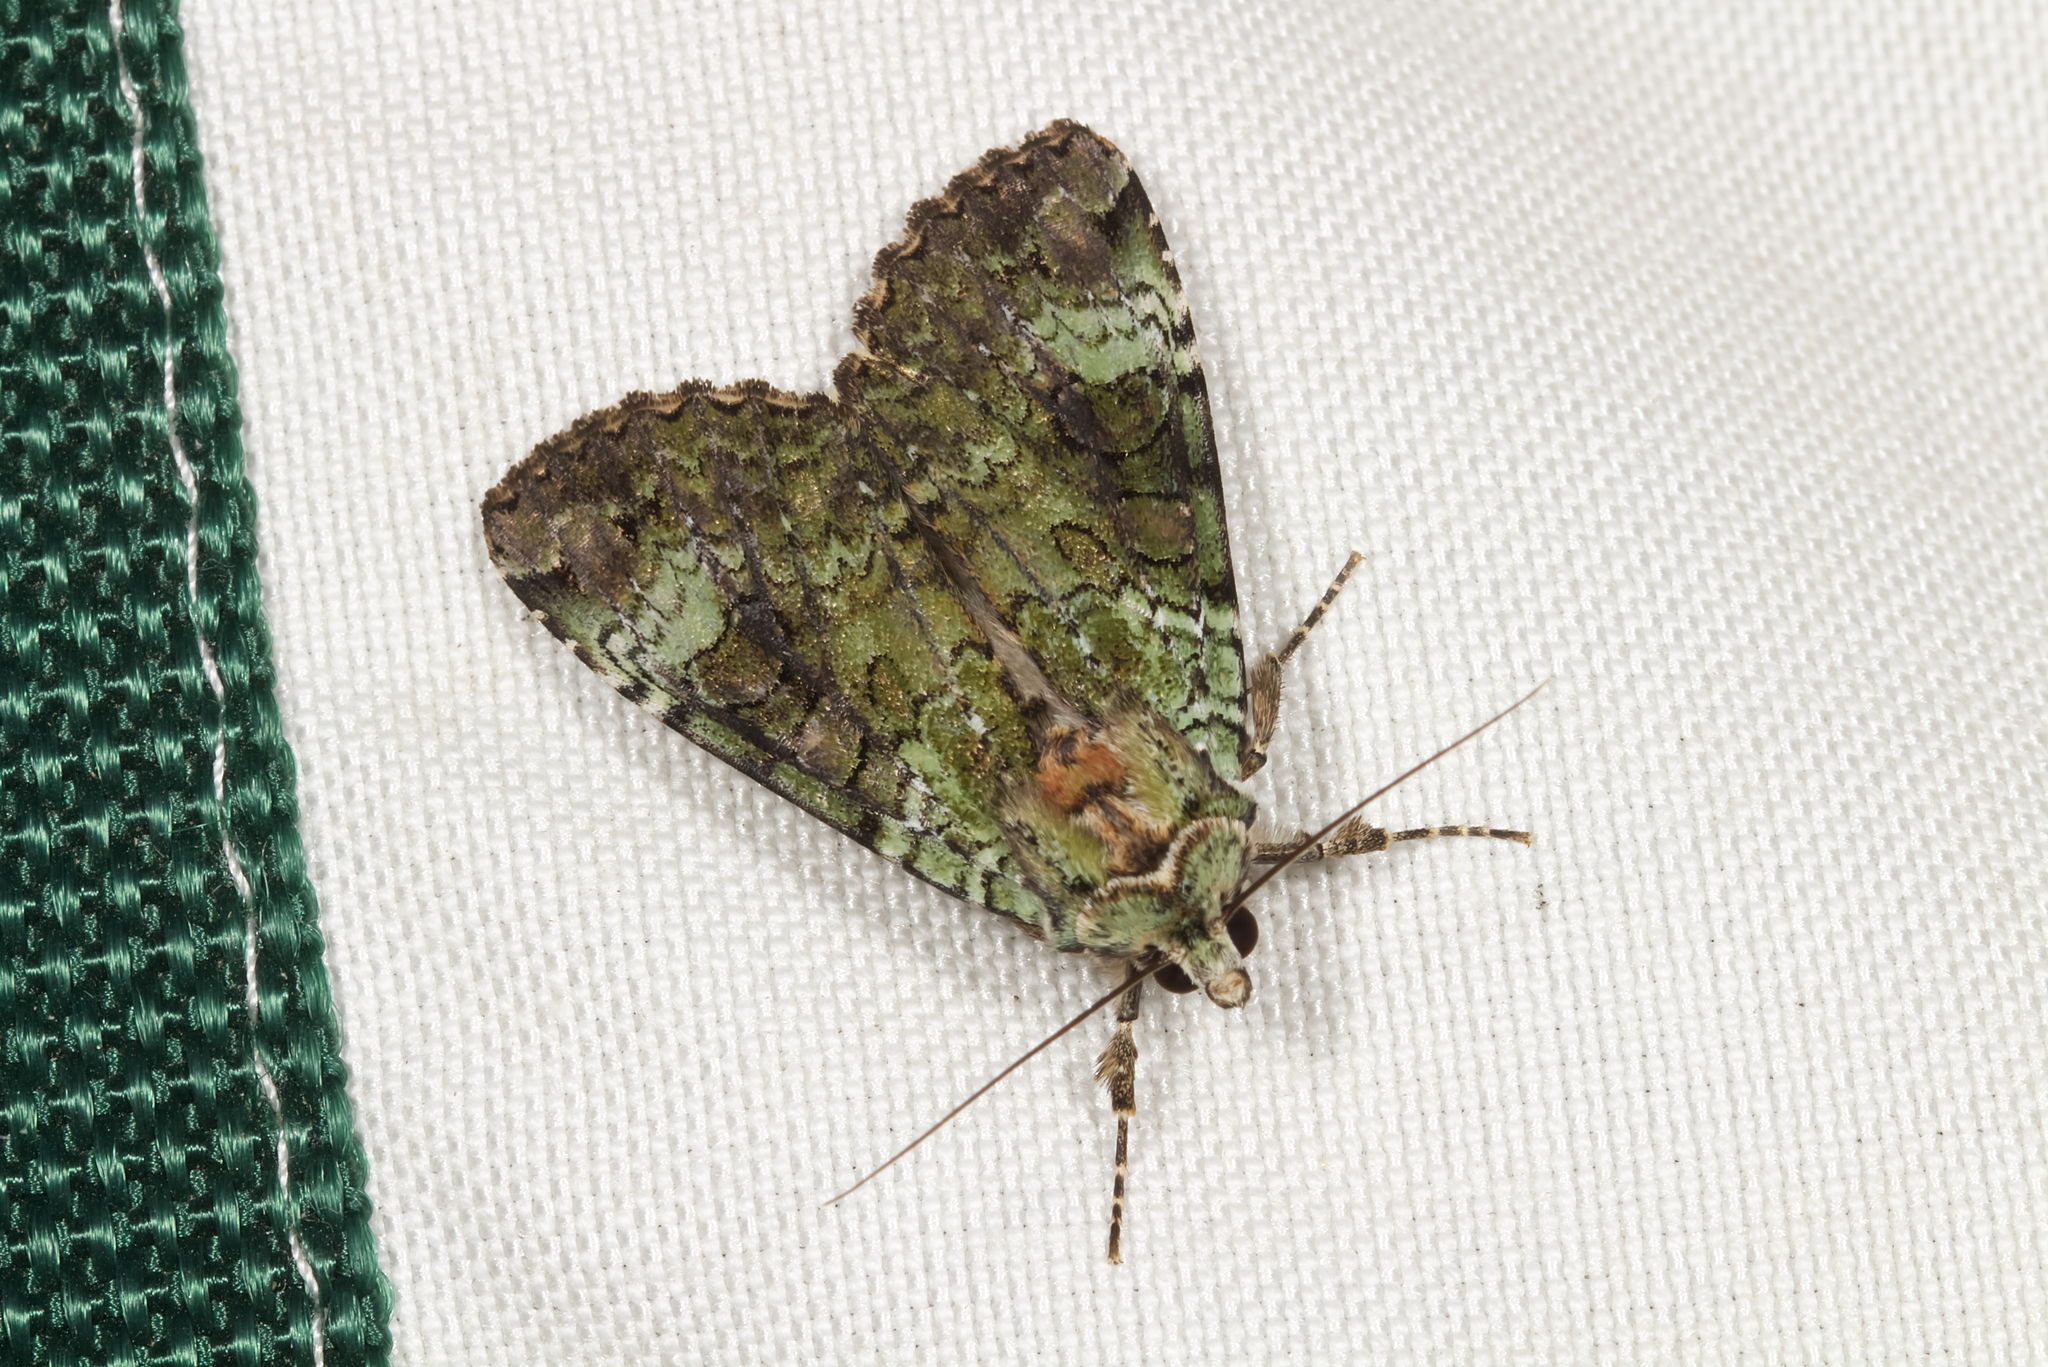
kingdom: Animalia
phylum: Arthropoda
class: Insecta
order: Lepidoptera
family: Noctuidae
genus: Anaplectoides
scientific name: Anaplectoides prasina
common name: Green arches
